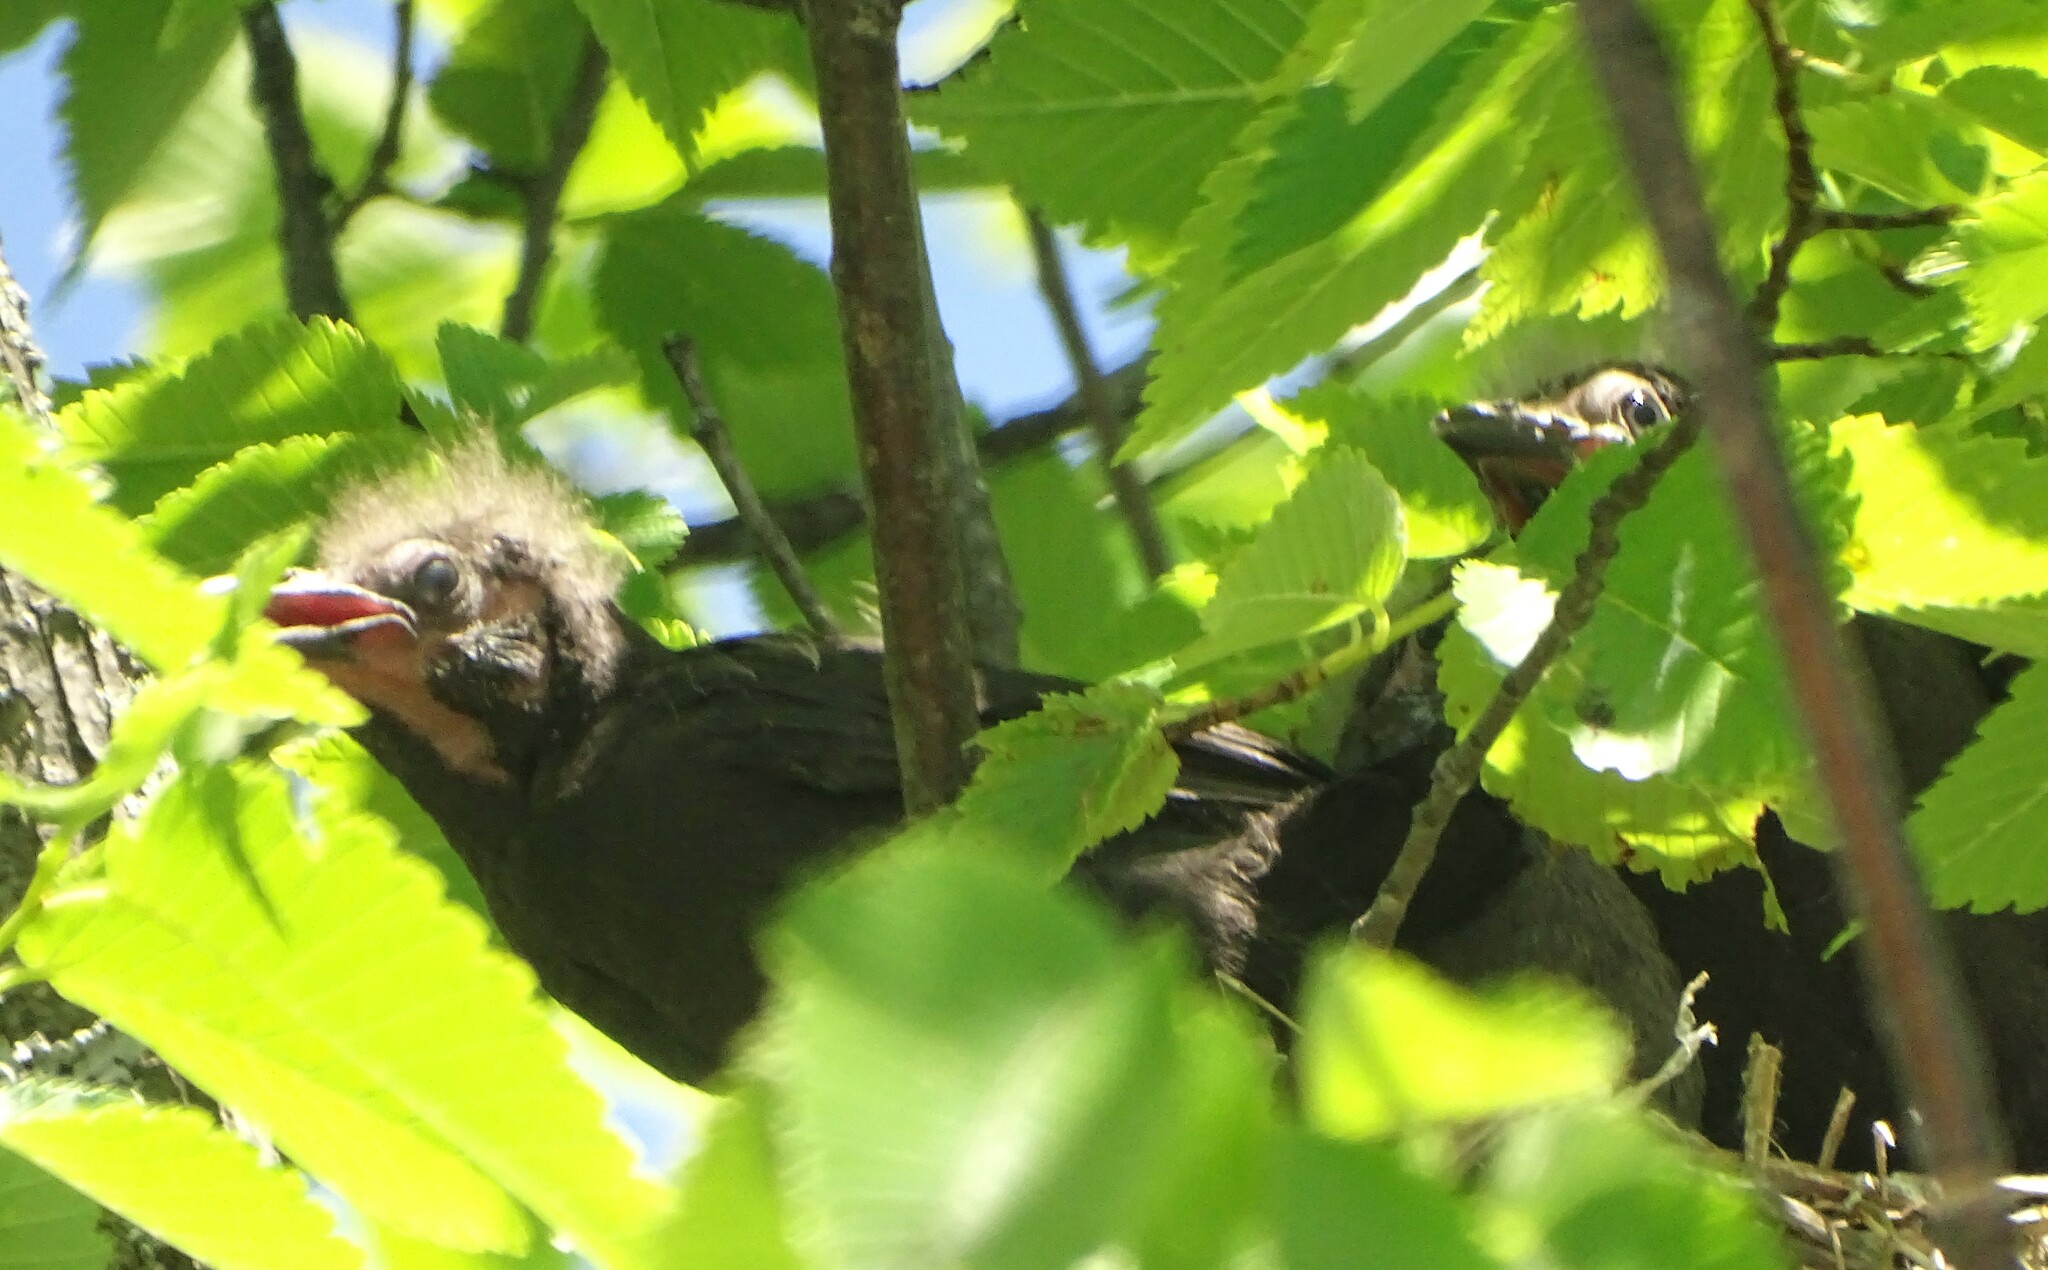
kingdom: Animalia
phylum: Chordata
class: Aves
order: Passeriformes
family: Icteridae
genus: Quiscalus
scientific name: Quiscalus quiscula
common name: Common grackle
